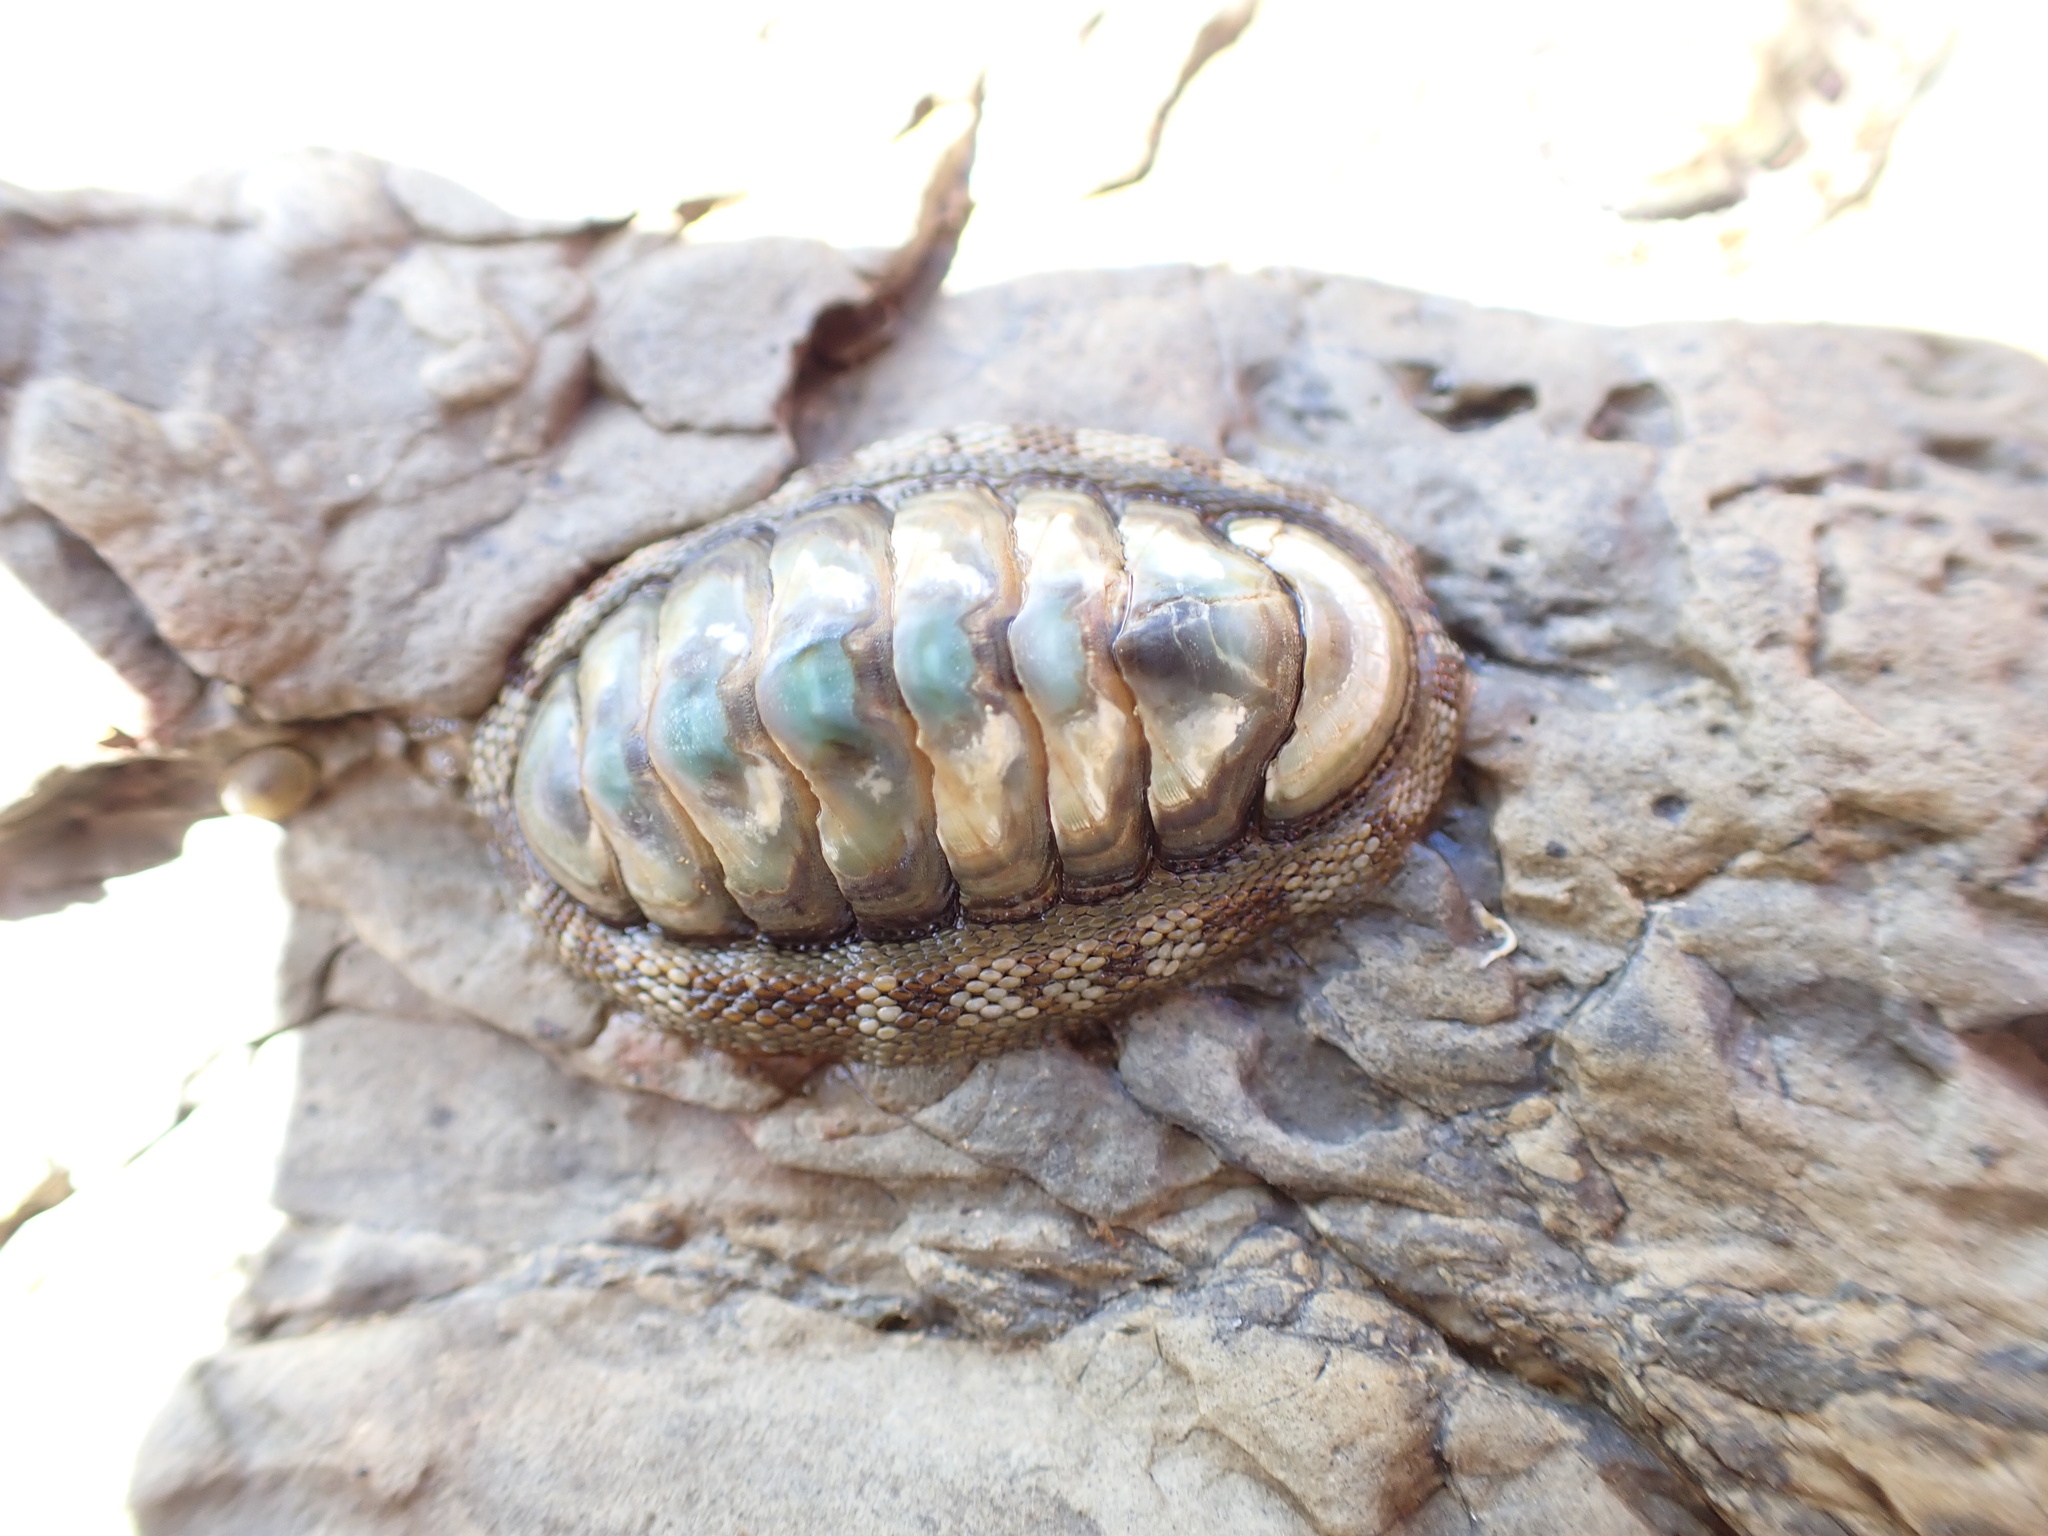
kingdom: Animalia
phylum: Mollusca
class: Polyplacophora
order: Chitonida
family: Chitonidae
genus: Sypharochiton
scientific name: Sypharochiton pelliserpentis
